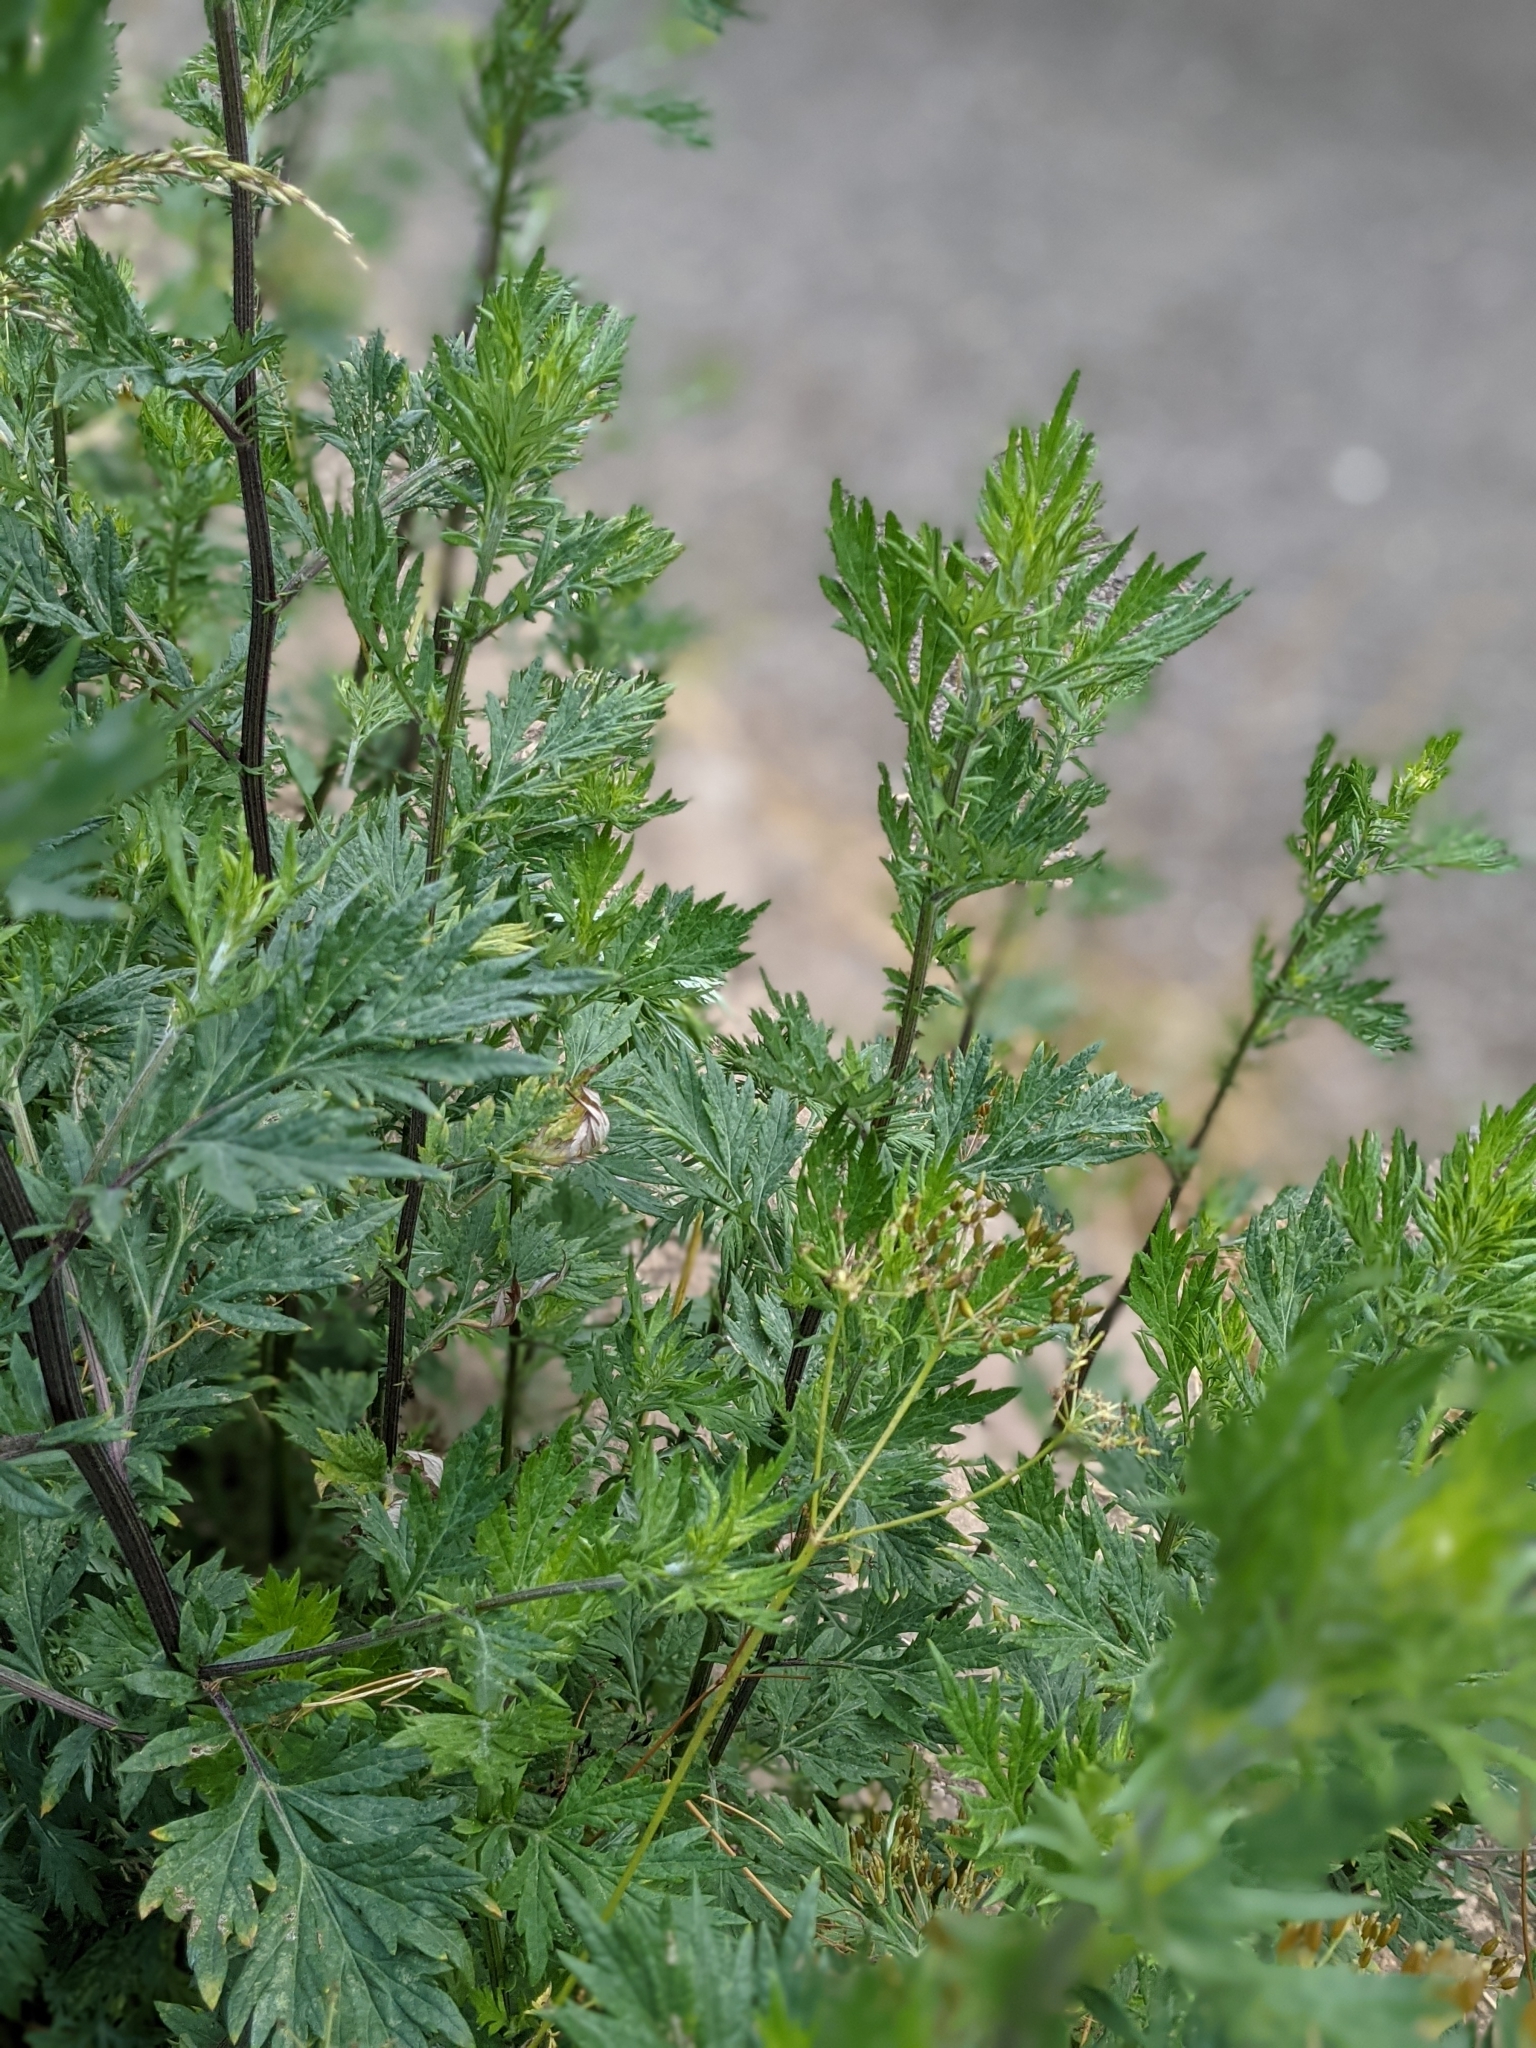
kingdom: Plantae
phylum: Tracheophyta
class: Magnoliopsida
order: Asterales
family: Asteraceae
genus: Artemisia
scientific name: Artemisia vulgaris
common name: Mugwort
